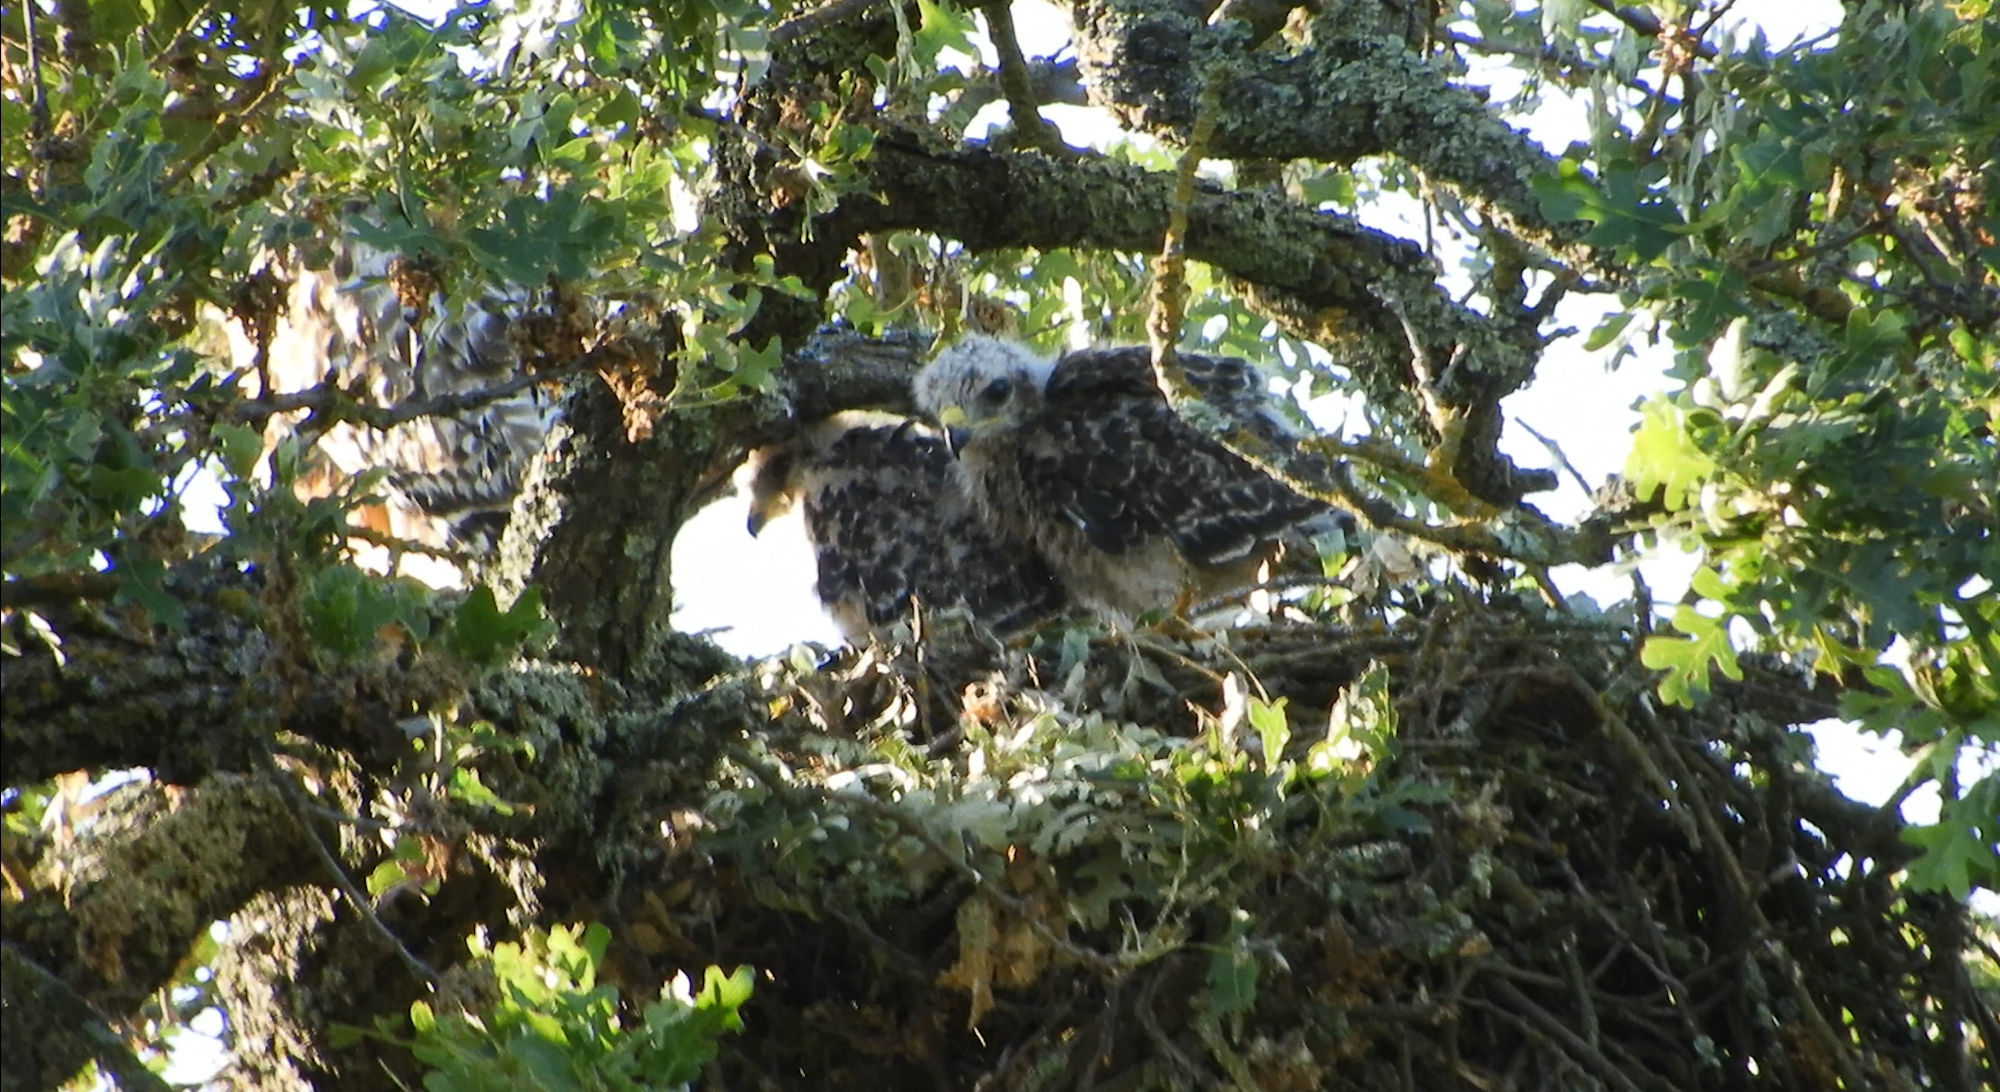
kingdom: Animalia
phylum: Chordata
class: Aves
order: Accipitriformes
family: Accipitridae
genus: Buteo
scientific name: Buteo lineatus
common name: Red-shouldered hawk
